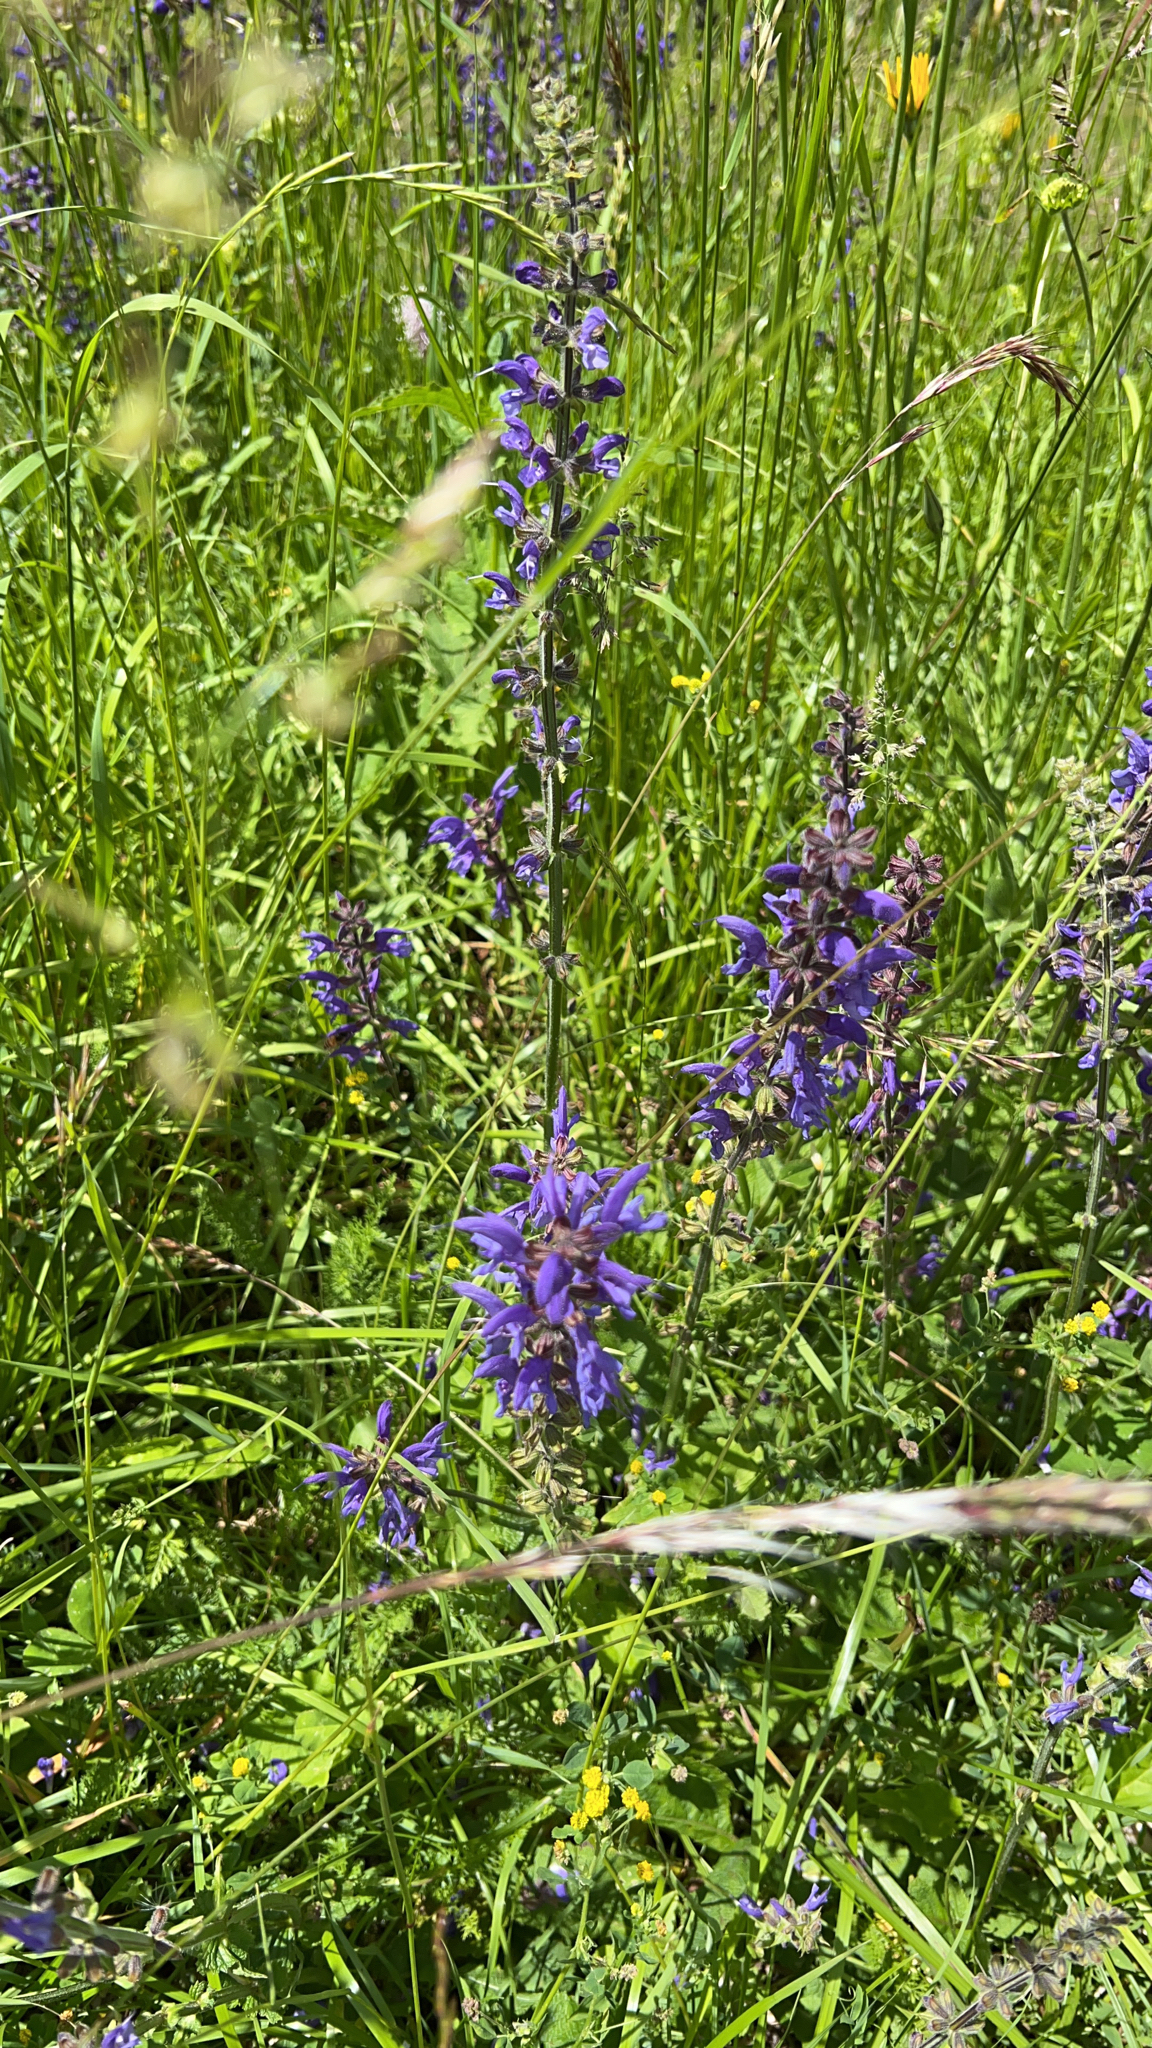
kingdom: Plantae
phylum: Tracheophyta
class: Magnoliopsida
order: Lamiales
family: Lamiaceae
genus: Salvia
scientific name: Salvia pratensis
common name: Meadow sage
